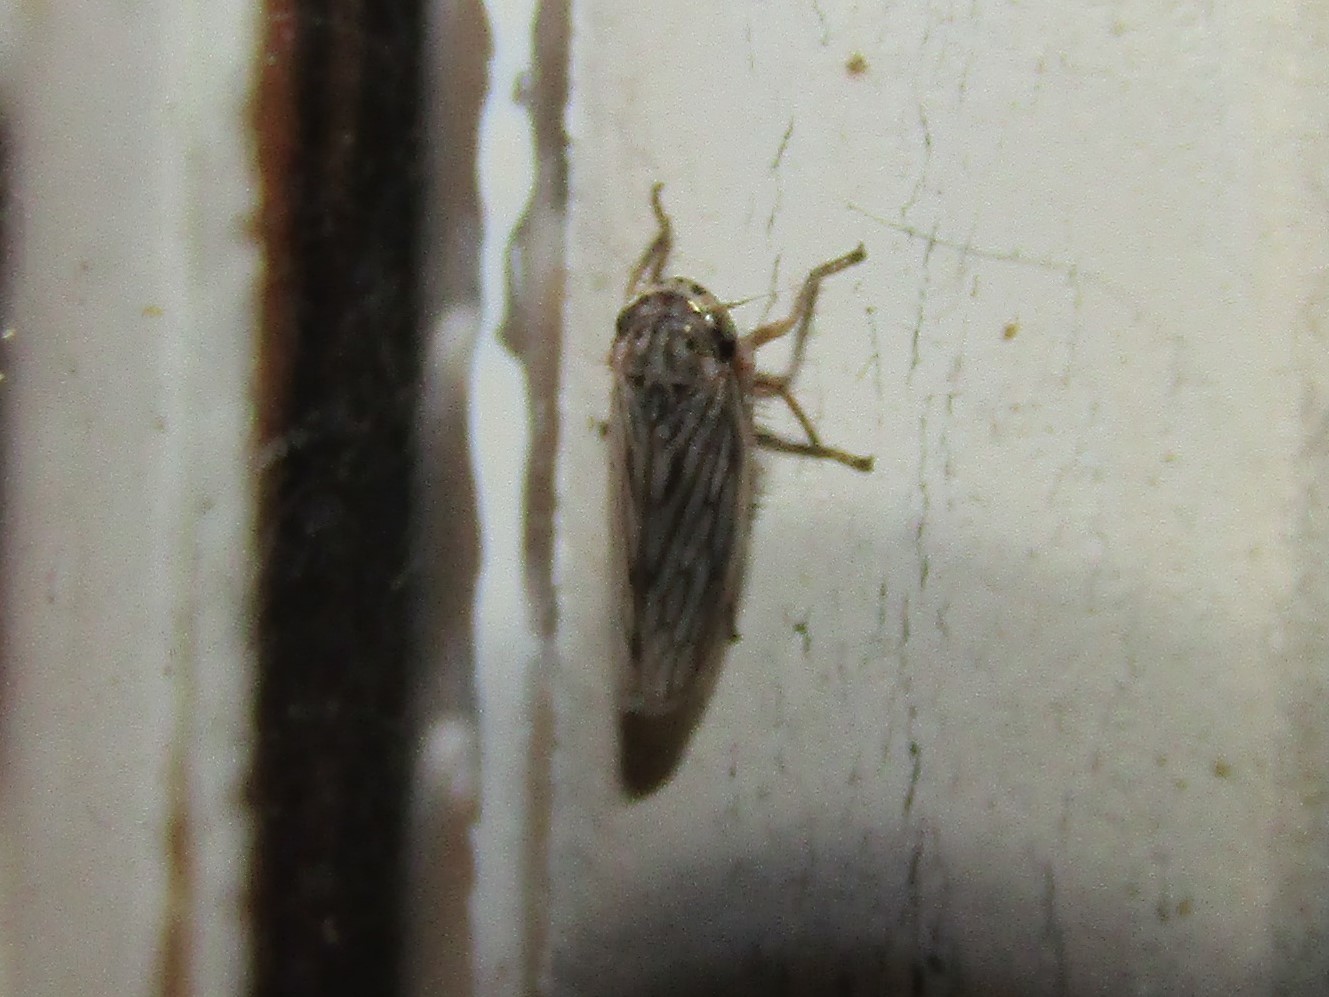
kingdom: Animalia
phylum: Arthropoda
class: Insecta
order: Hemiptera
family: Cicadellidae
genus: Exitianus
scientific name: Exitianus exitiosus
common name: Gray lawn leafhopper
